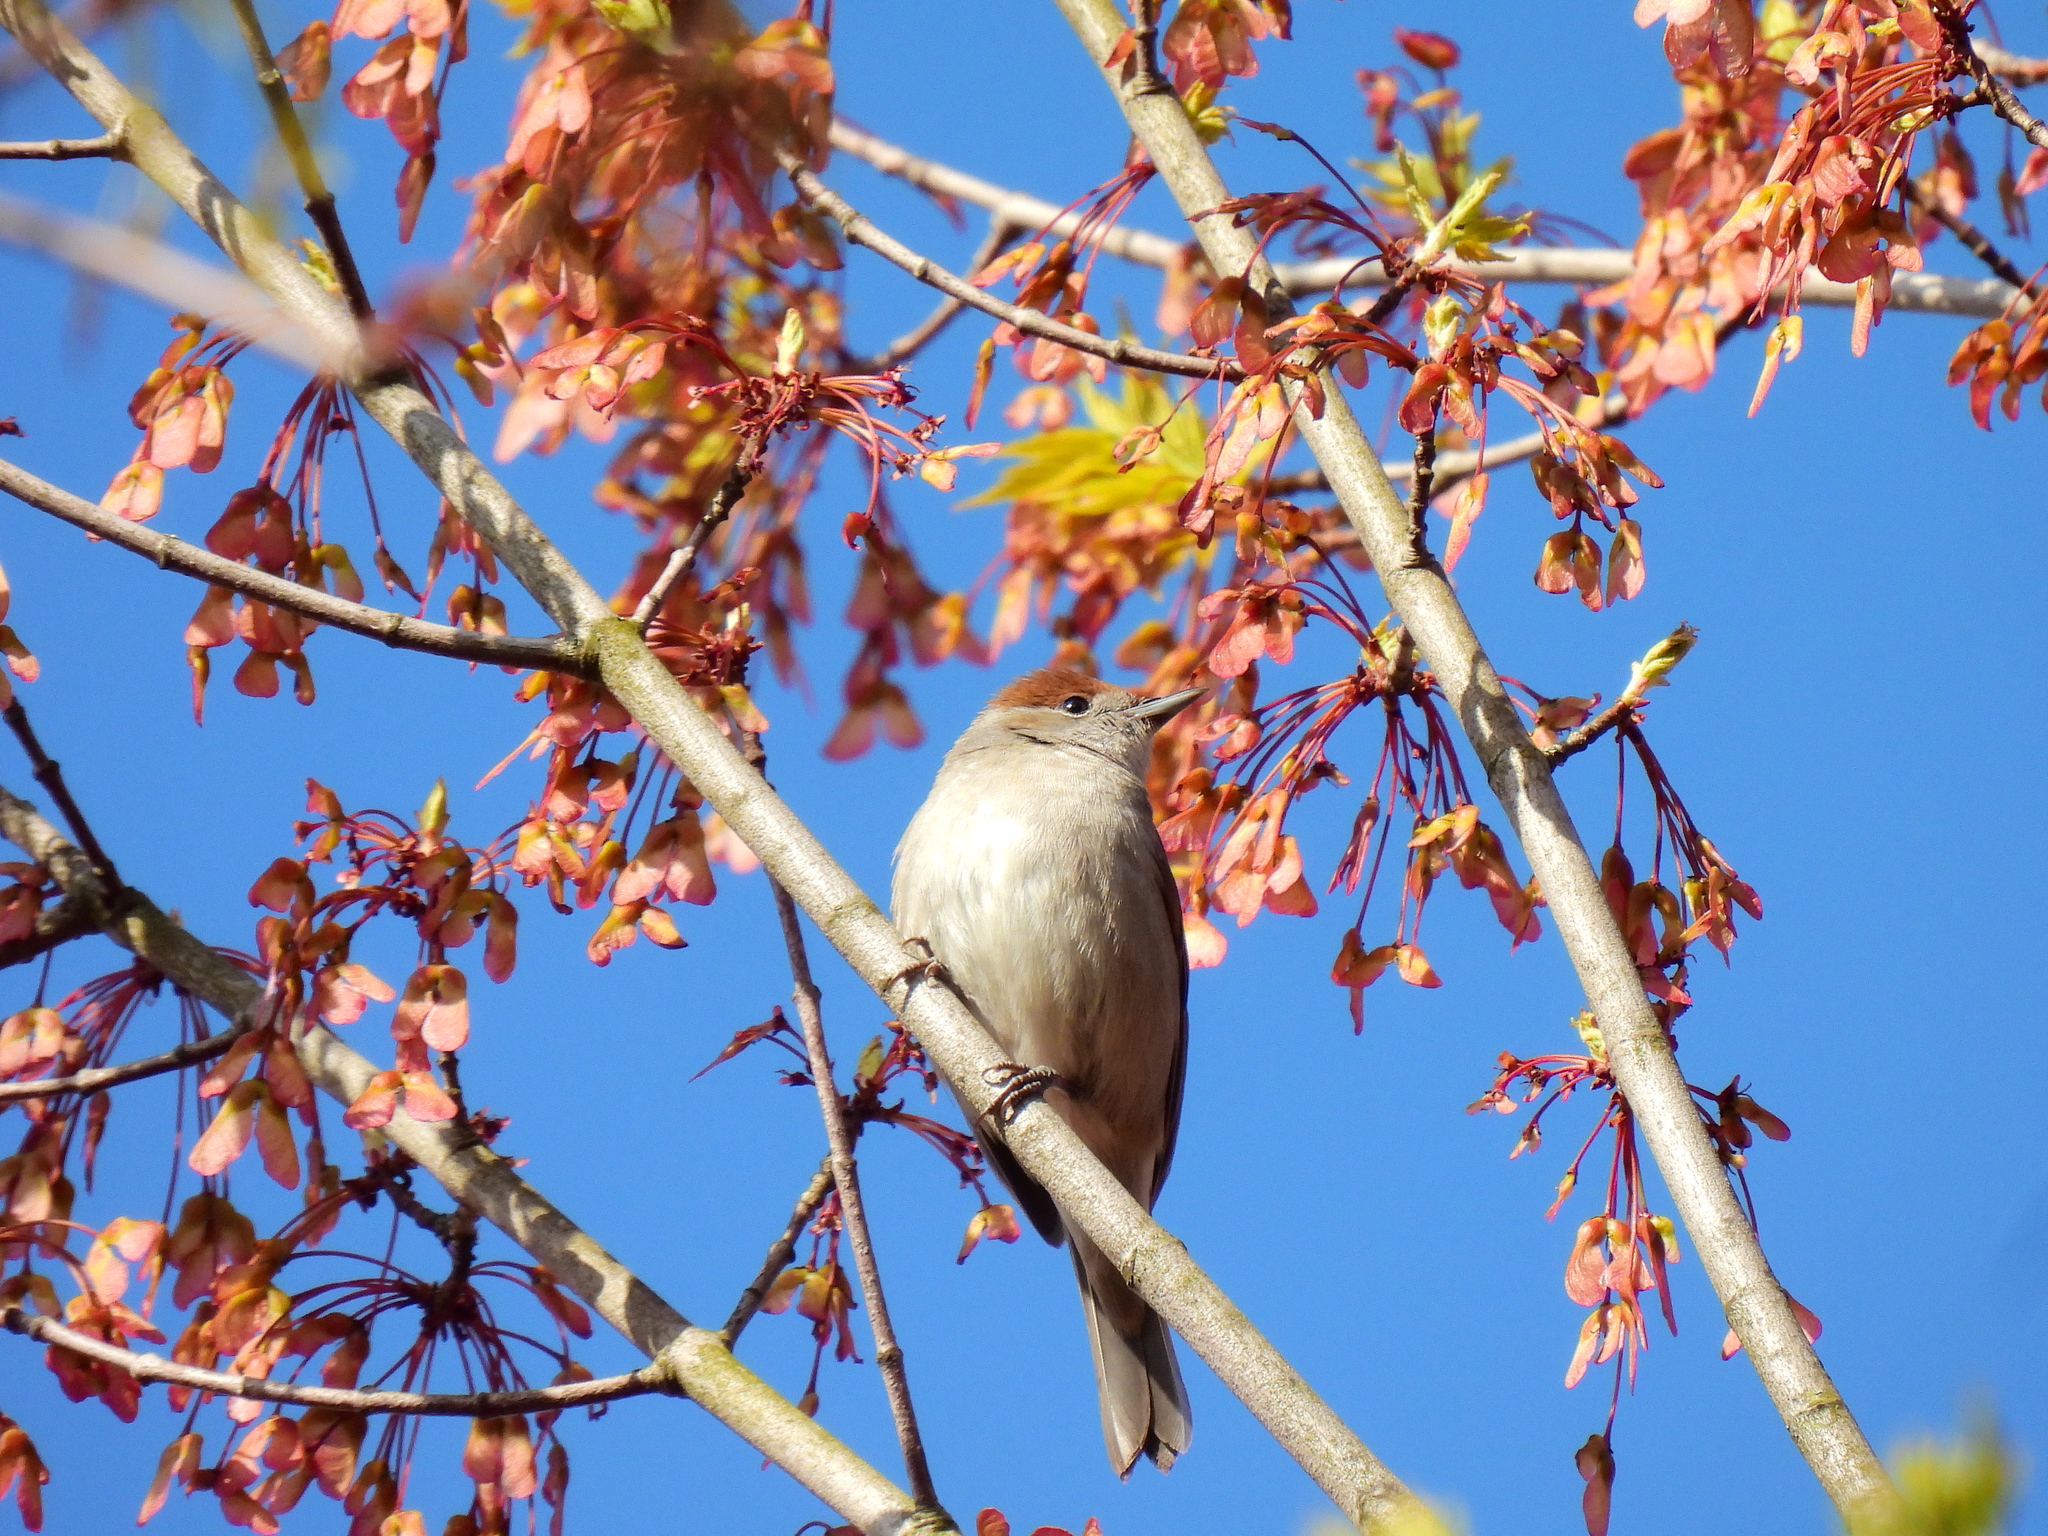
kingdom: Animalia
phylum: Chordata
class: Aves
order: Passeriformes
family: Sylviidae
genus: Sylvia
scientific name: Sylvia atricapilla
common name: Eurasian blackcap
